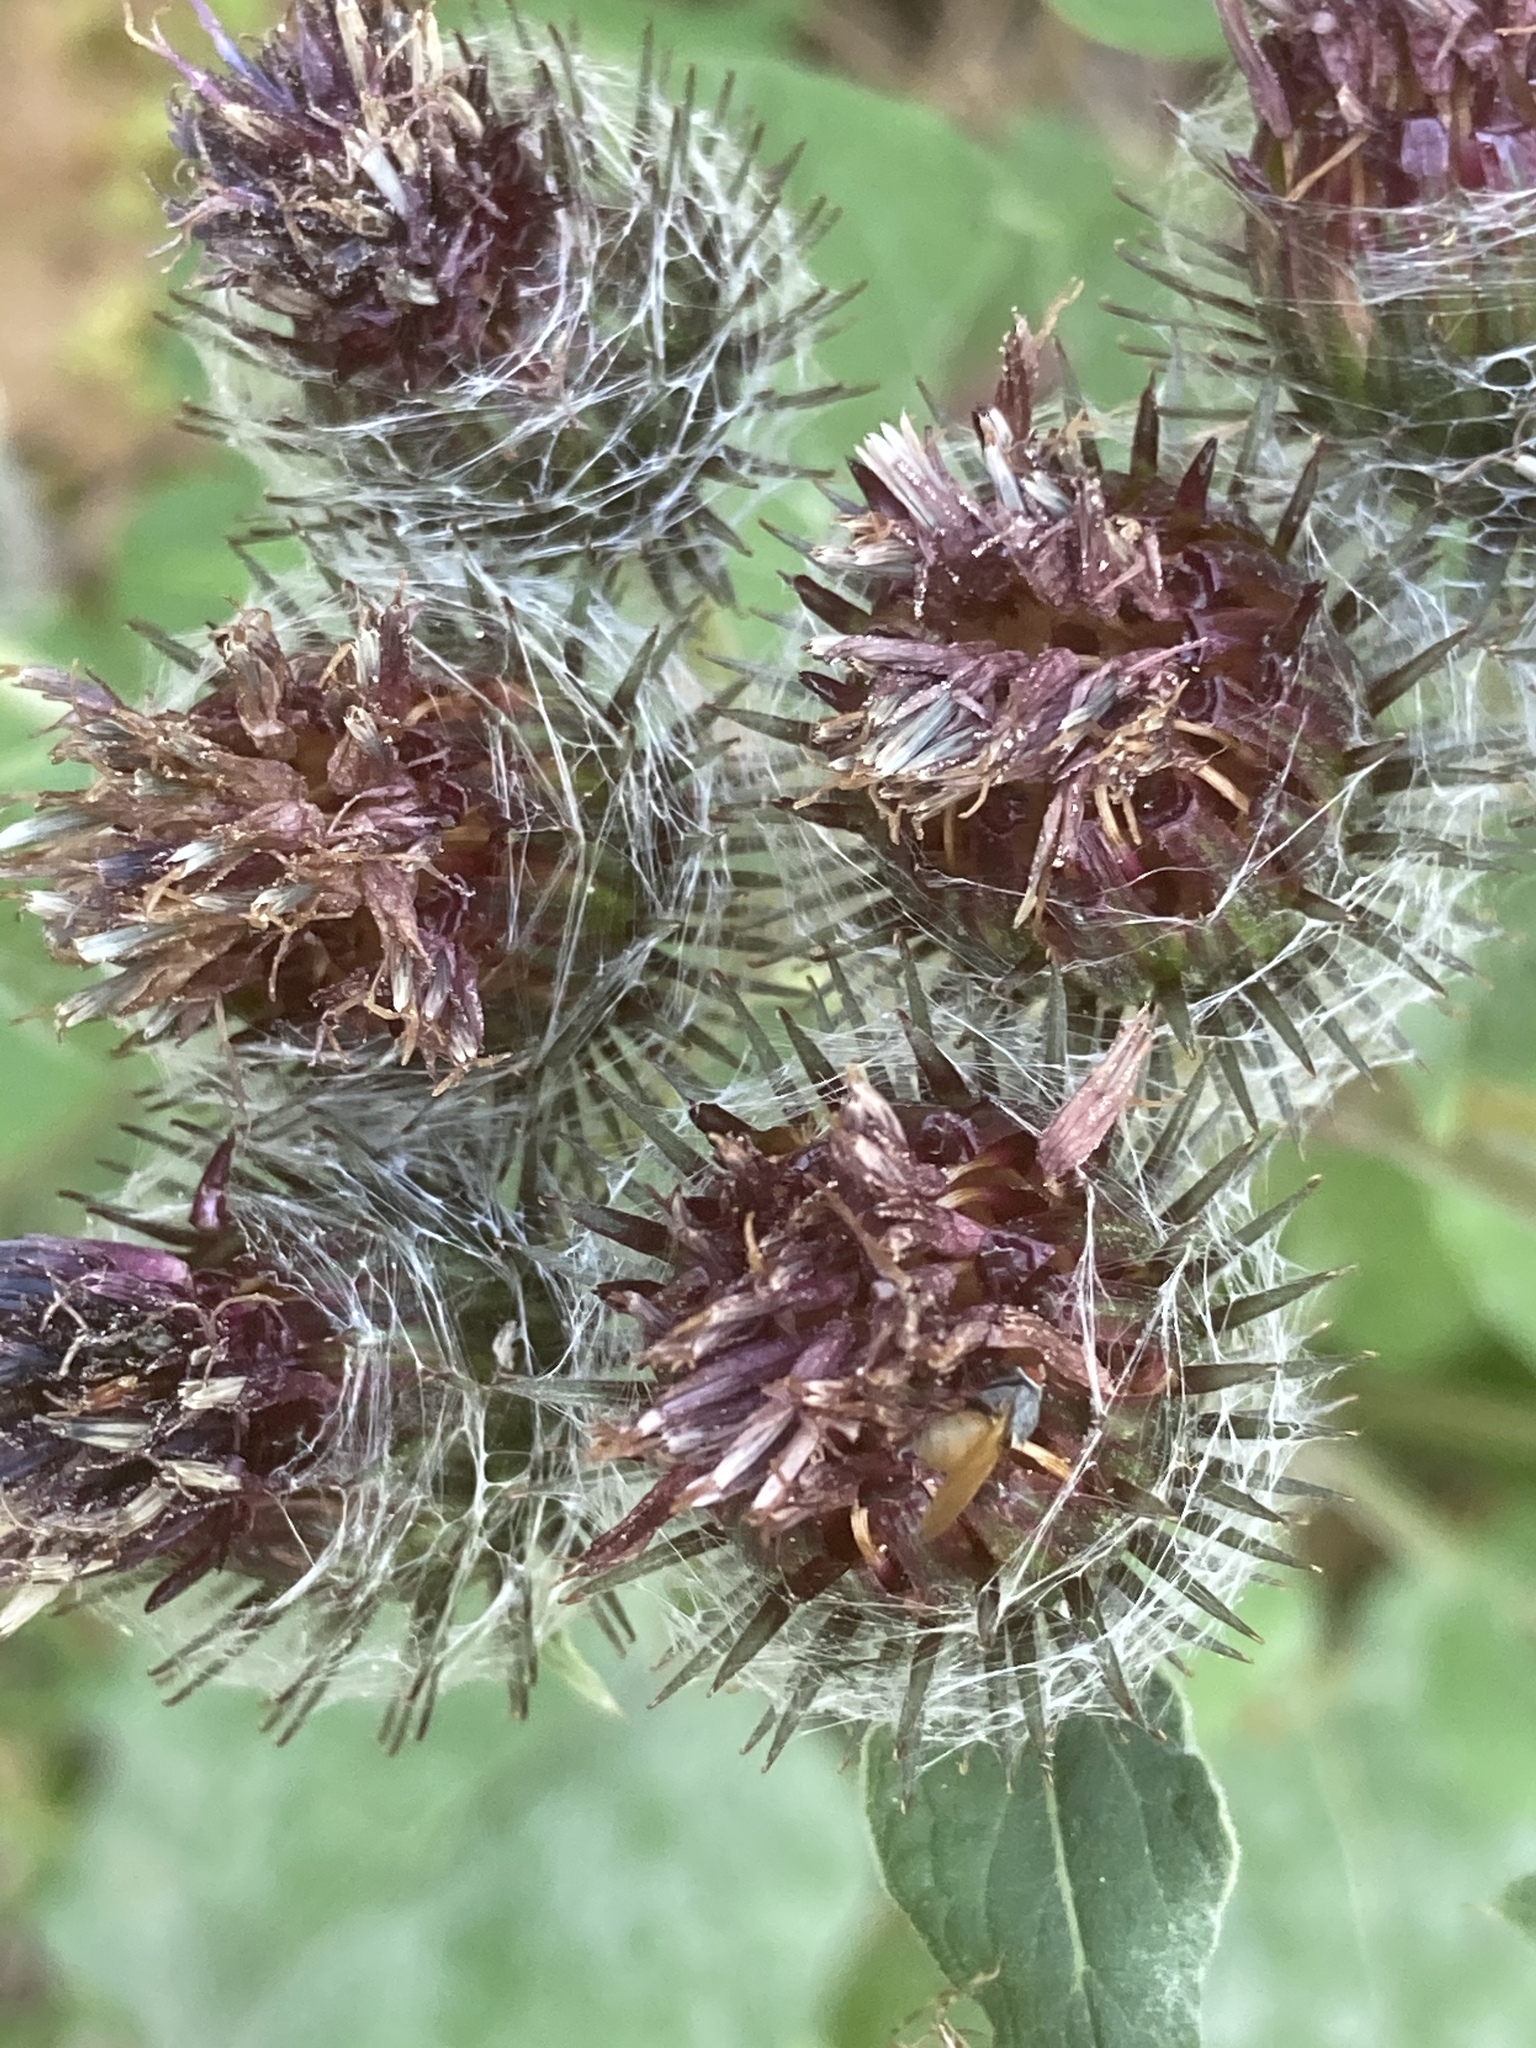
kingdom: Plantae
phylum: Tracheophyta
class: Magnoliopsida
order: Asterales
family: Asteraceae
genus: Arctium
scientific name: Arctium tomentosum
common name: Woolly burdock
